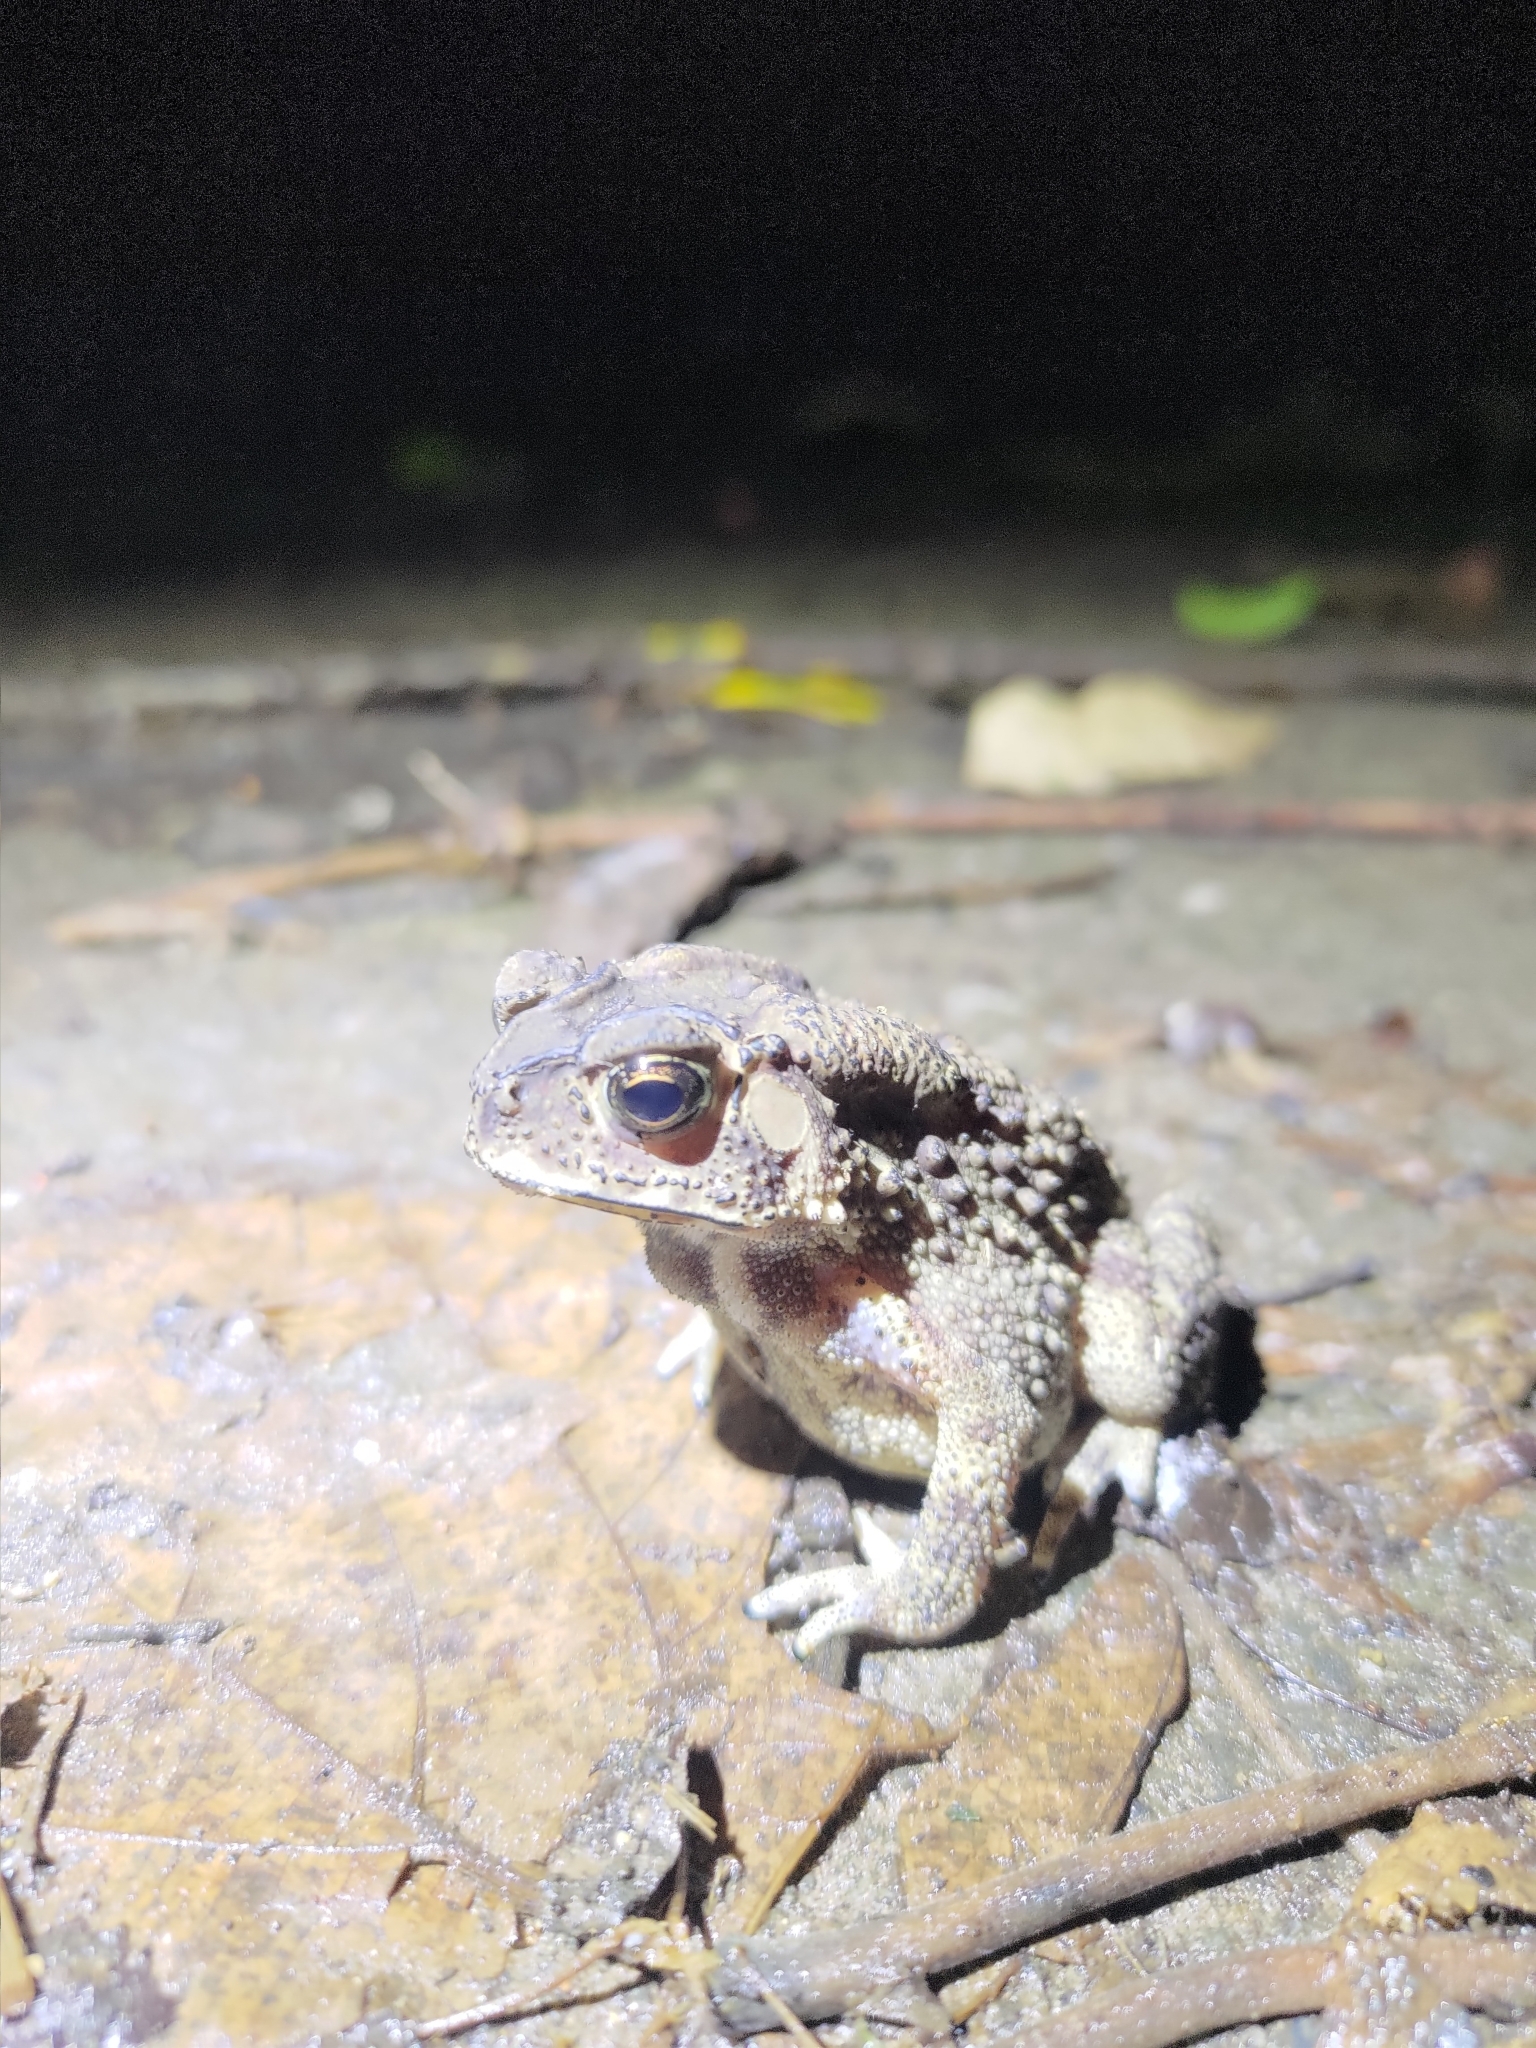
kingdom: Animalia
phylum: Chordata
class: Amphibia
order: Anura
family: Bufonidae
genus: Duttaphrynus
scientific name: Duttaphrynus melanostictus
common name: Common sunda toad
